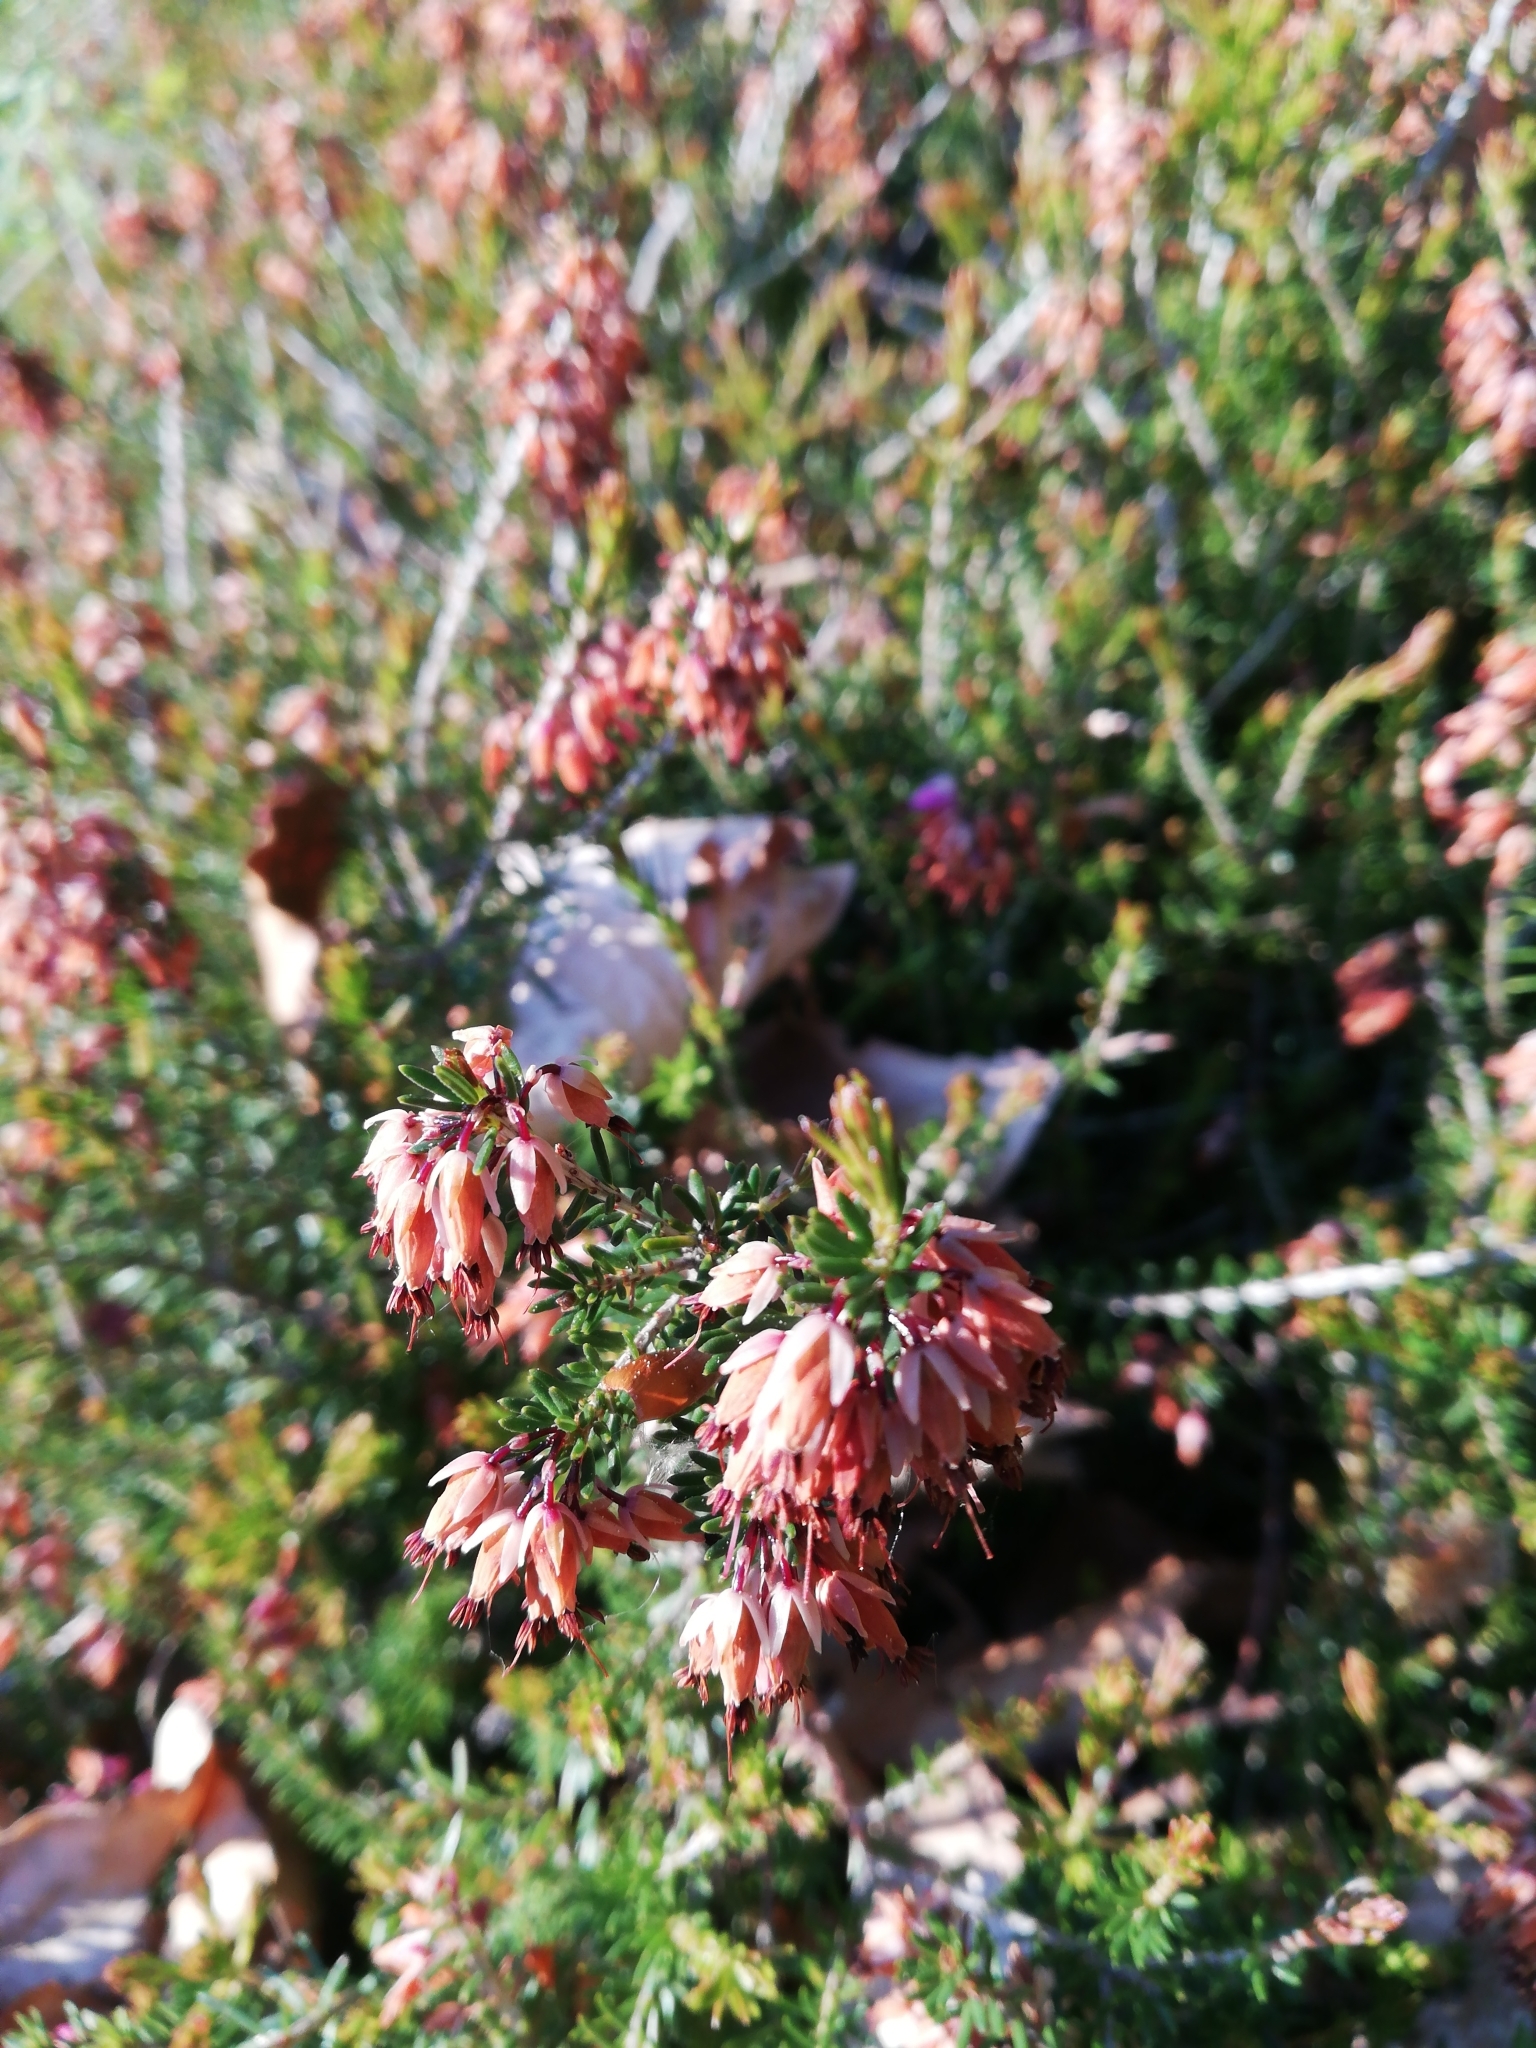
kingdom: Plantae
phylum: Tracheophyta
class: Magnoliopsida
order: Ericales
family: Ericaceae
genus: Erica
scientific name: Erica carnea
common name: Winter heath
